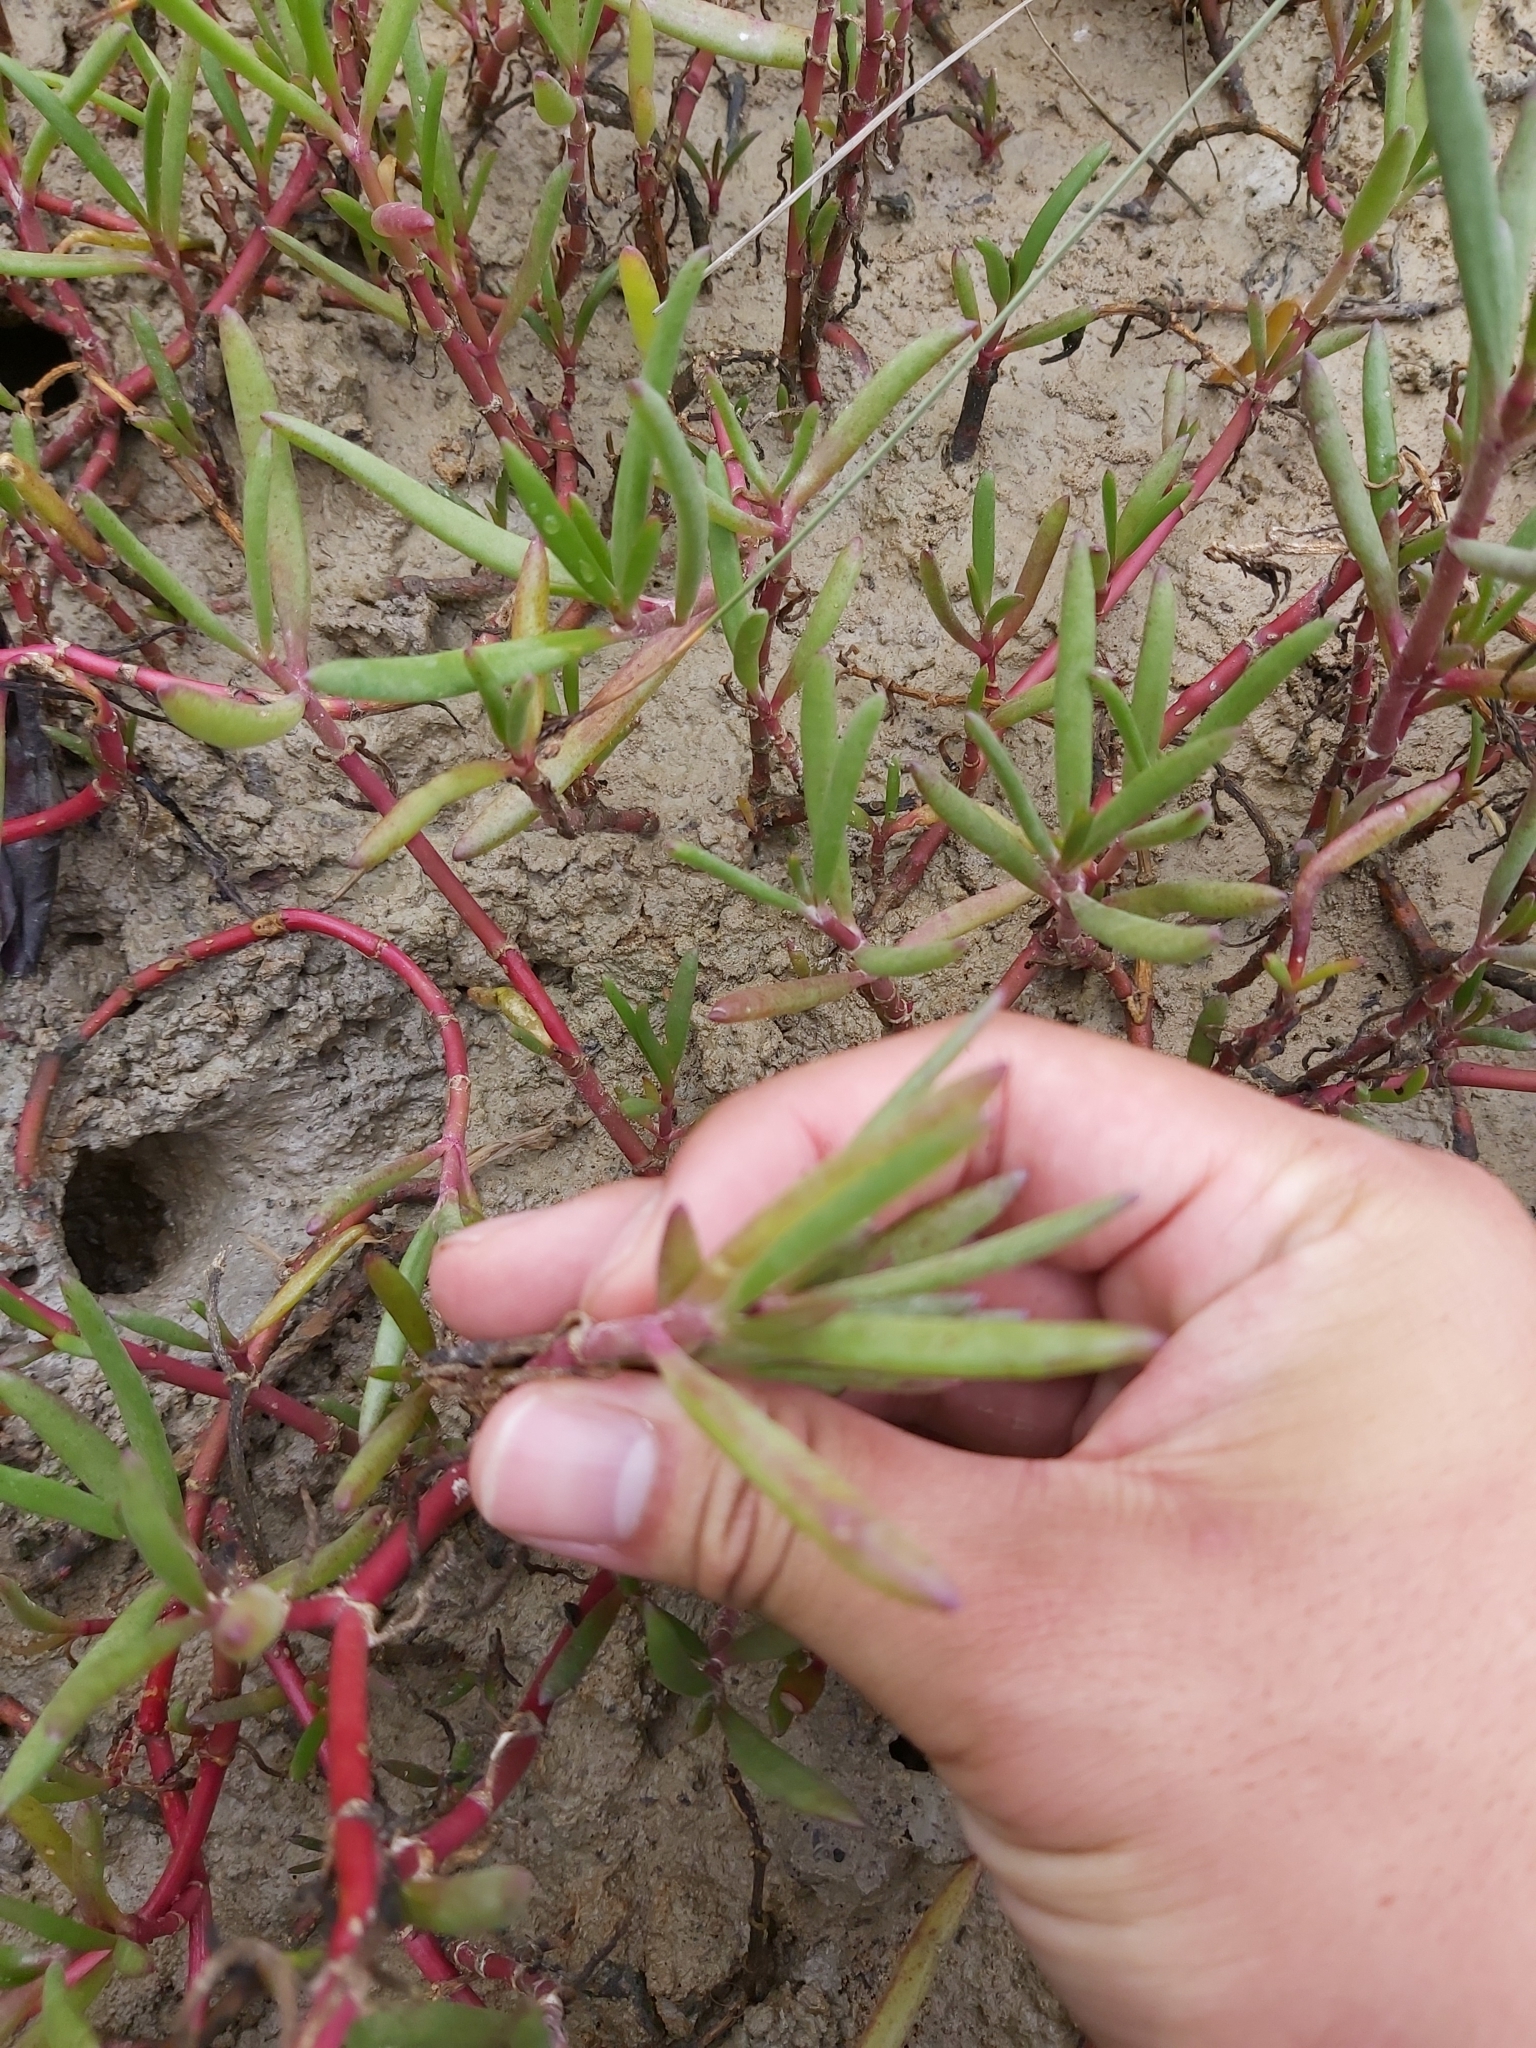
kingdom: Plantae
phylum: Tracheophyta
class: Magnoliopsida
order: Caryophyllales
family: Aizoaceae
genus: Sesuvium
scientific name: Sesuvium portulacastrum
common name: Sea-purslane
